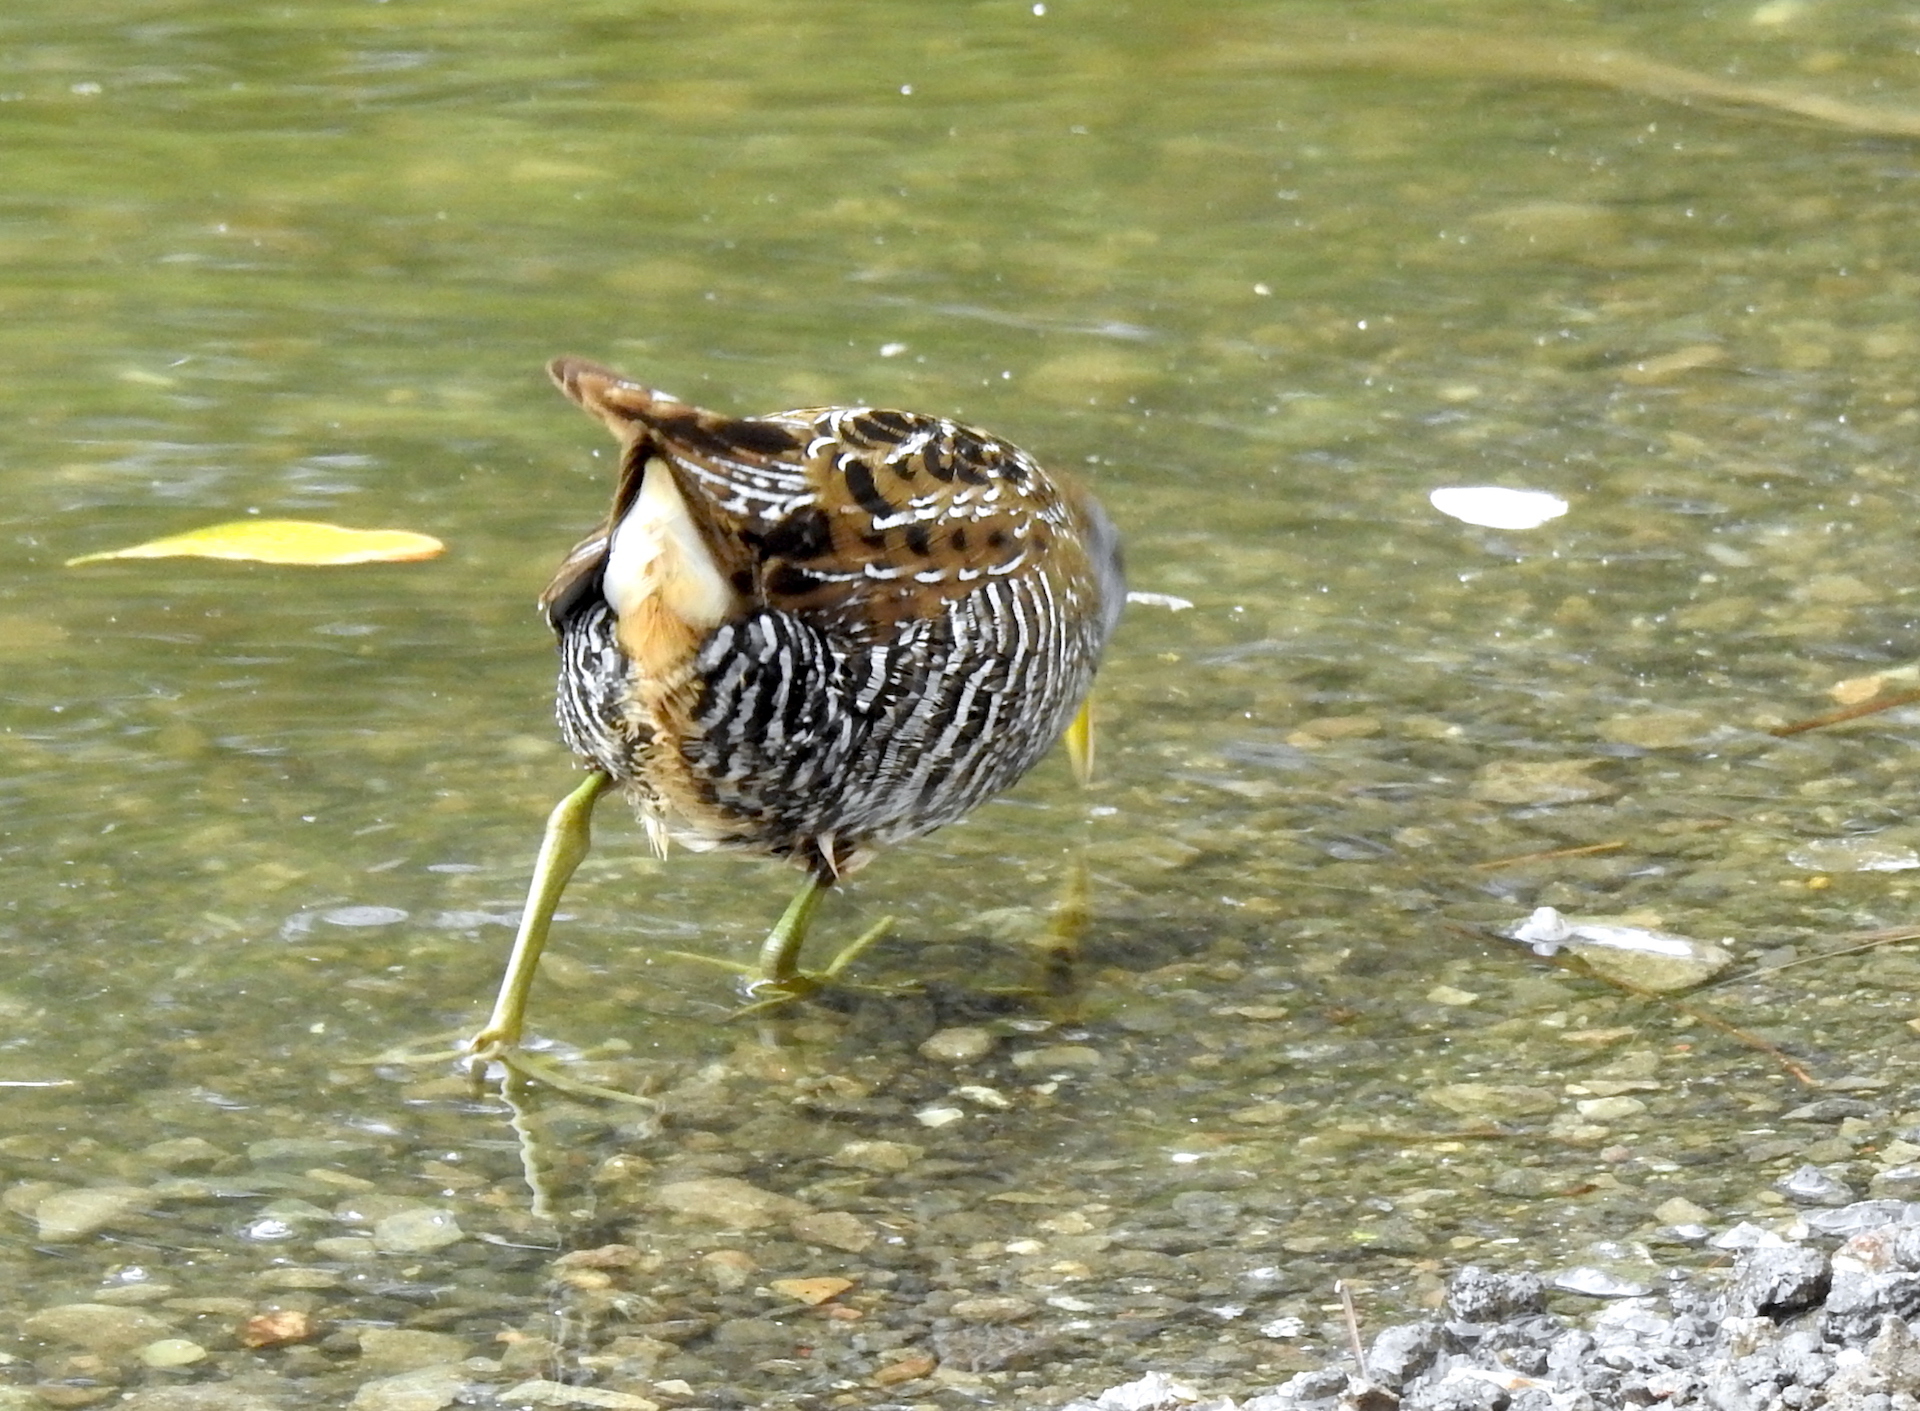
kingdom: Animalia
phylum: Chordata
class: Aves
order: Gruiformes
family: Rallidae
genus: Porzana
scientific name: Porzana carolina
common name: Sora
